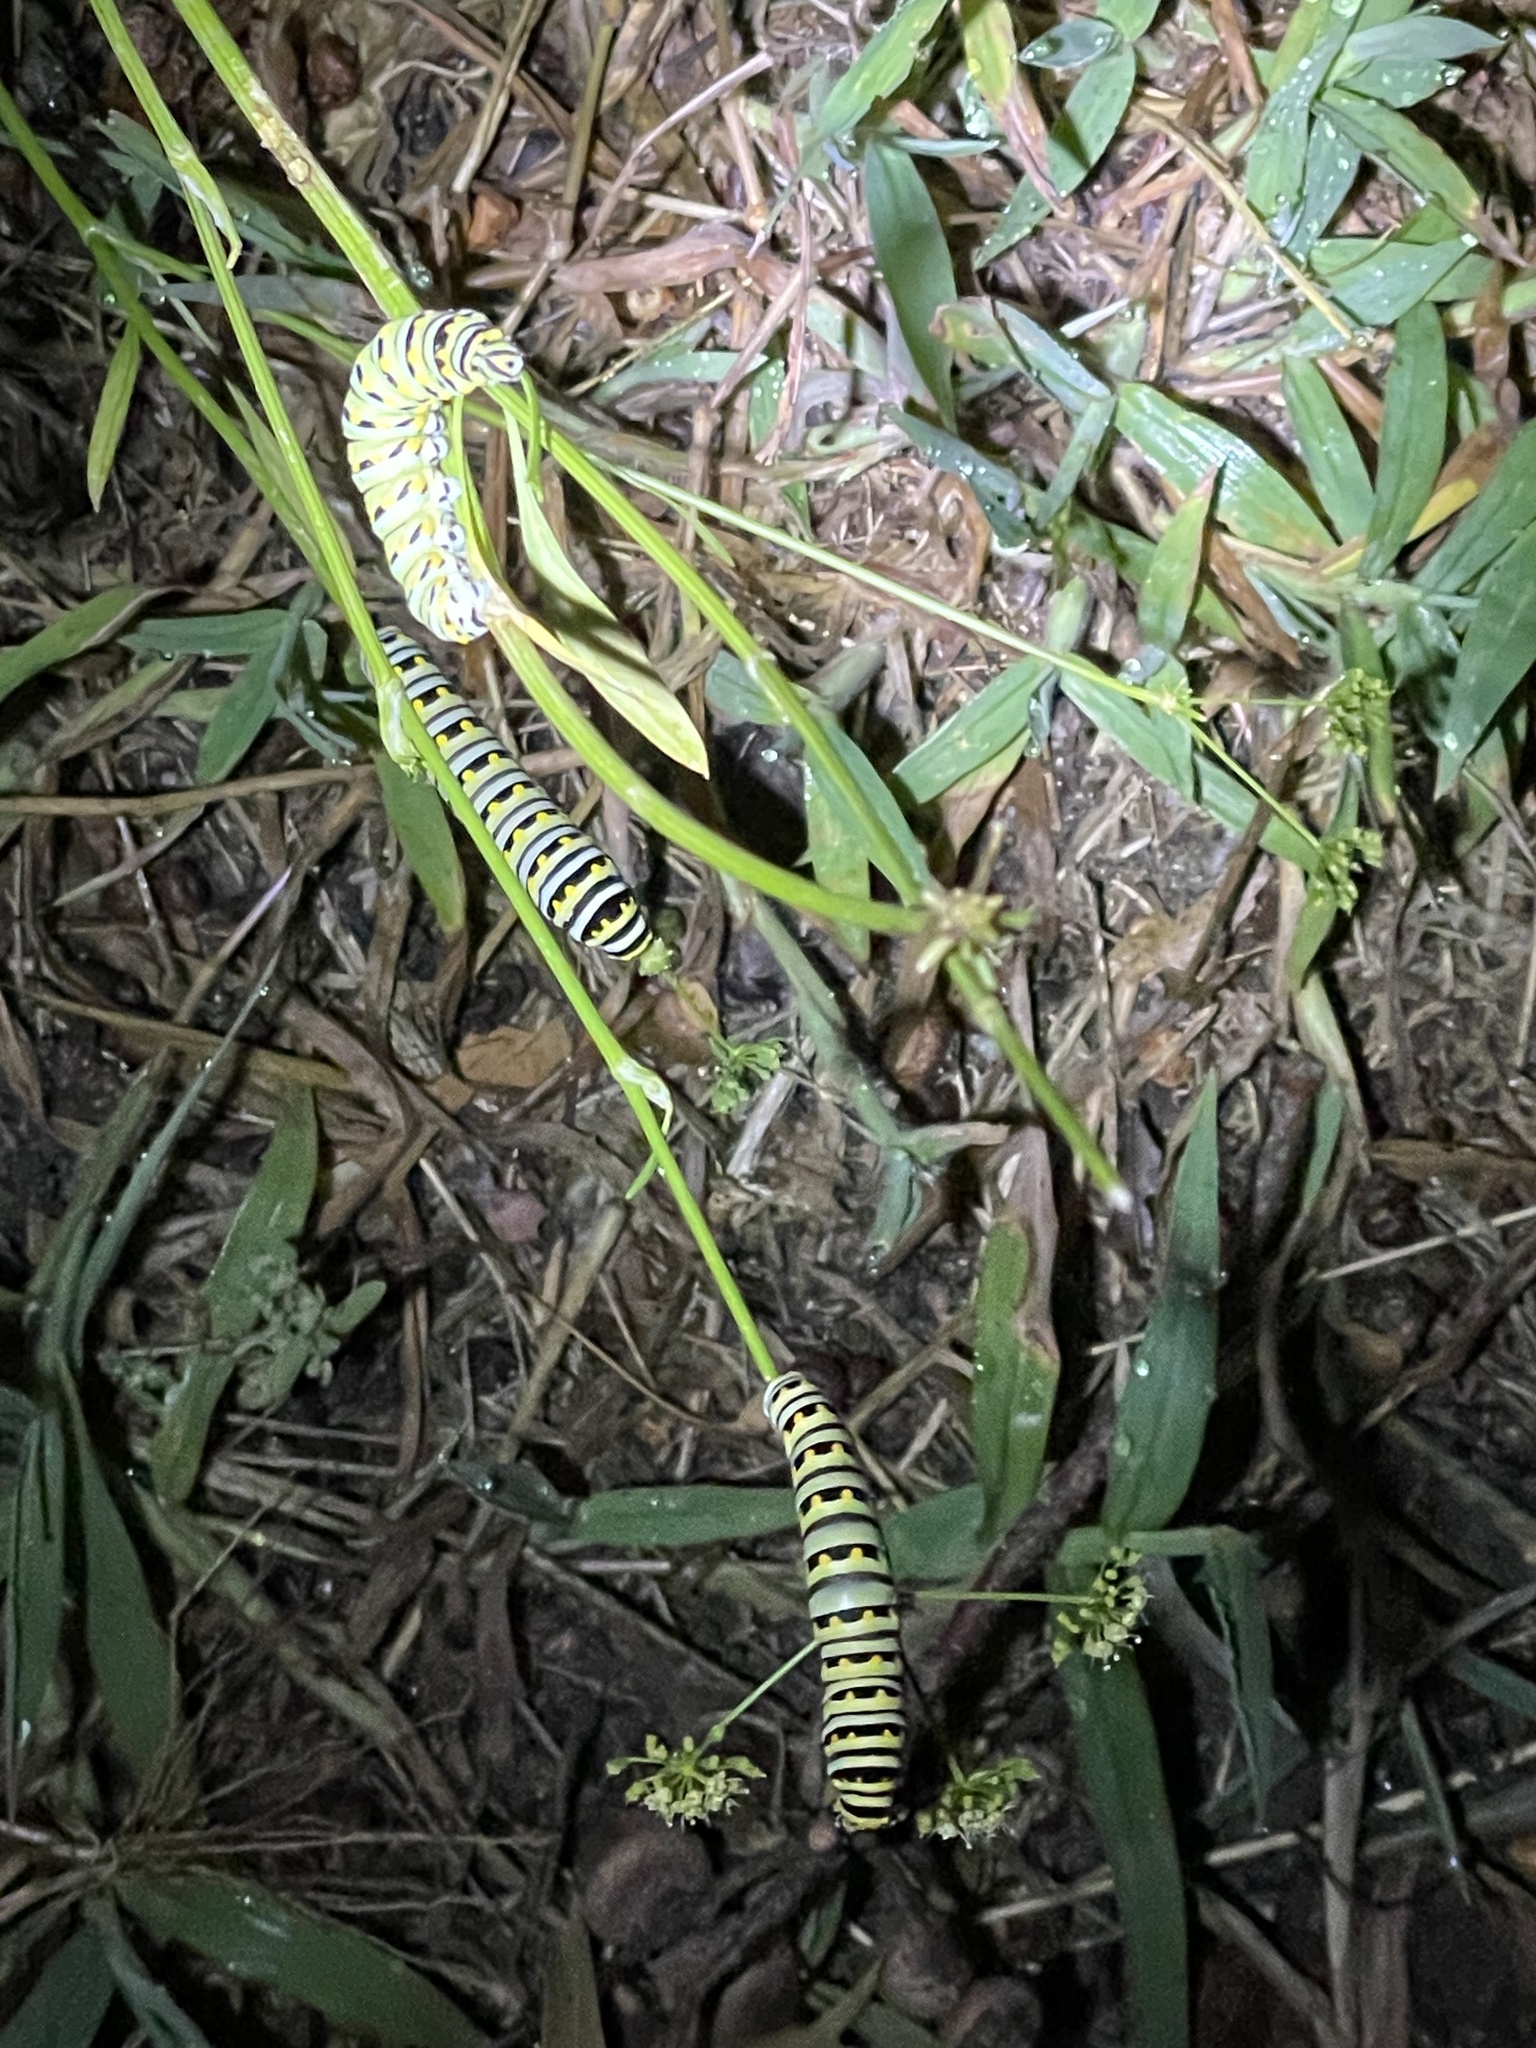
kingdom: Animalia
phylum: Arthropoda
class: Insecta
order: Lepidoptera
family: Papilionidae
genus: Papilio
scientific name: Papilio polyxenes
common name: Black swallowtail
